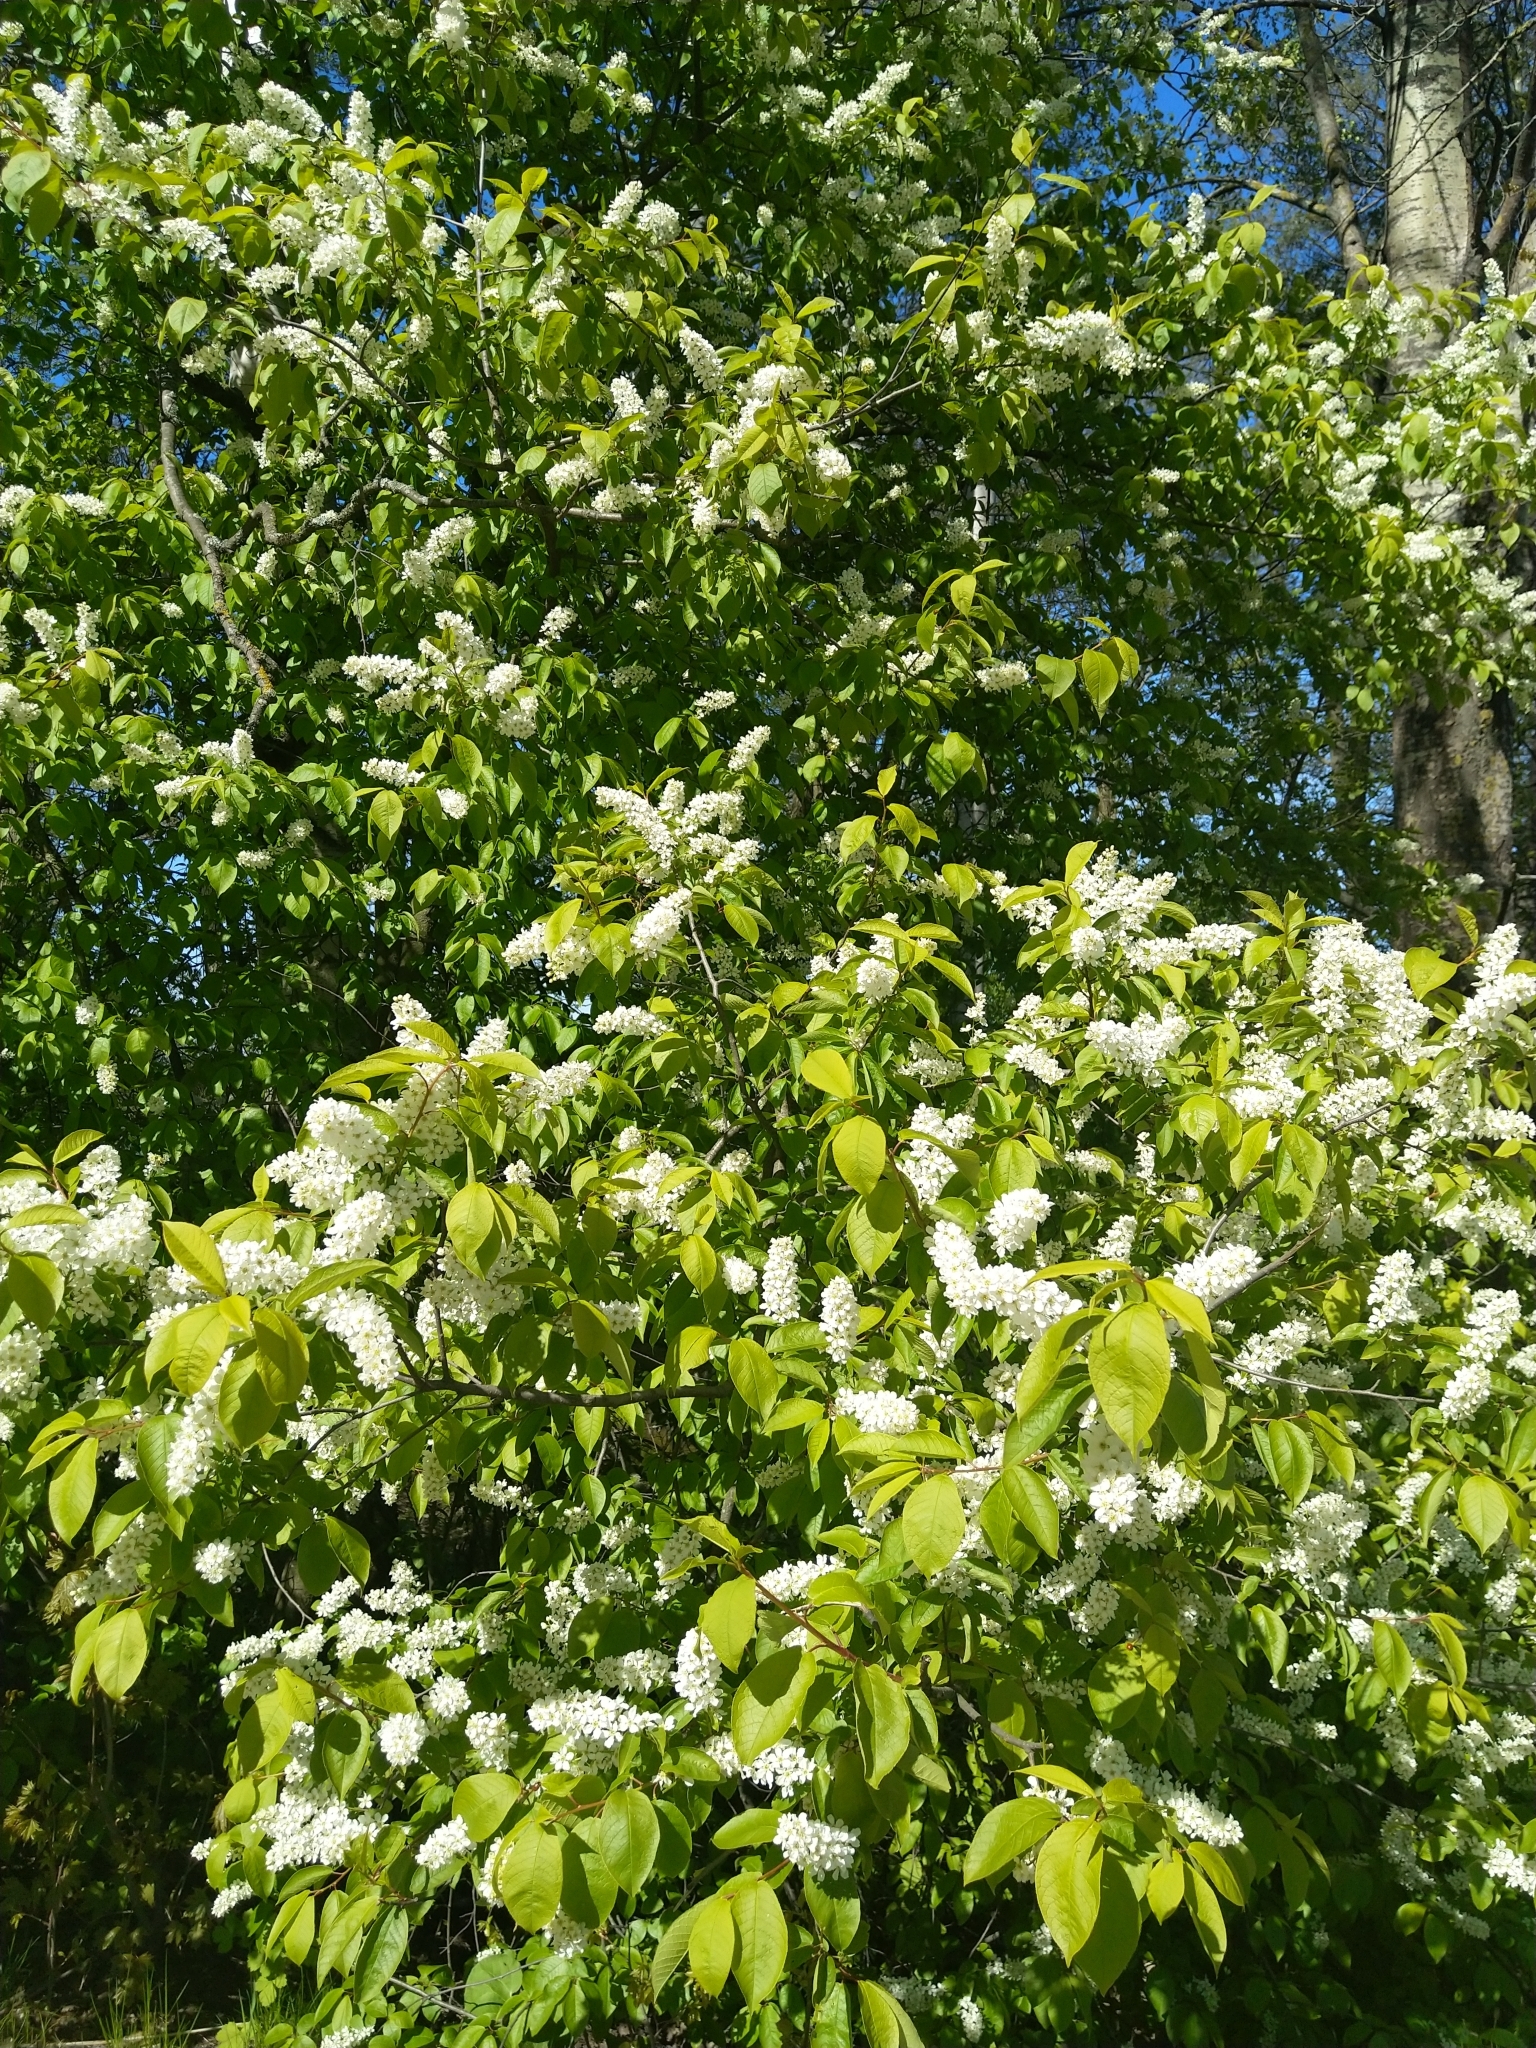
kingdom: Plantae
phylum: Tracheophyta
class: Magnoliopsida
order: Rosales
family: Rosaceae
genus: Prunus
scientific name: Prunus padus
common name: Bird cherry
